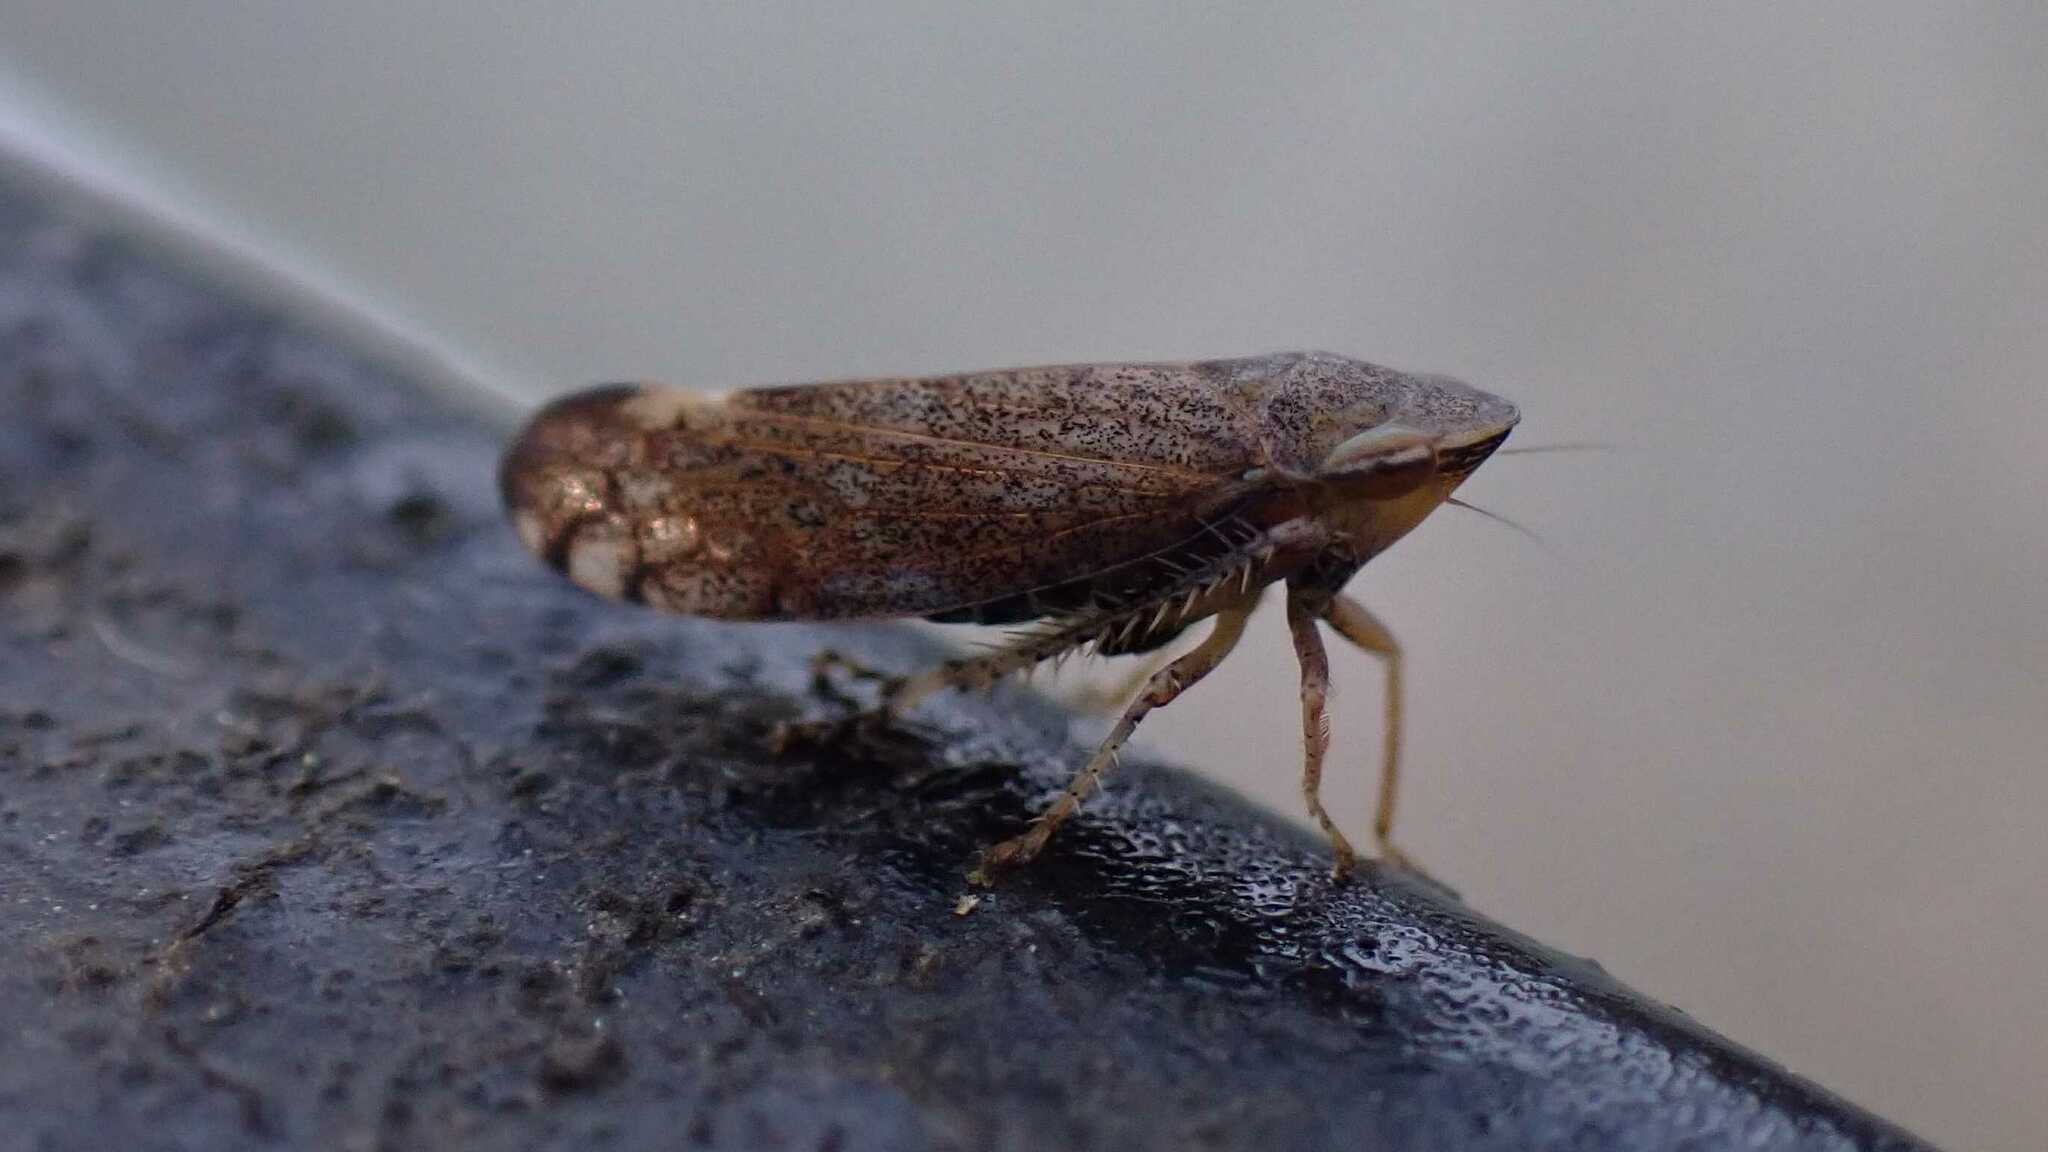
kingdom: Animalia
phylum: Arthropoda
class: Insecta
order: Hemiptera
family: Cicadellidae
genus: Fieberiella
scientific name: Fieberiella
